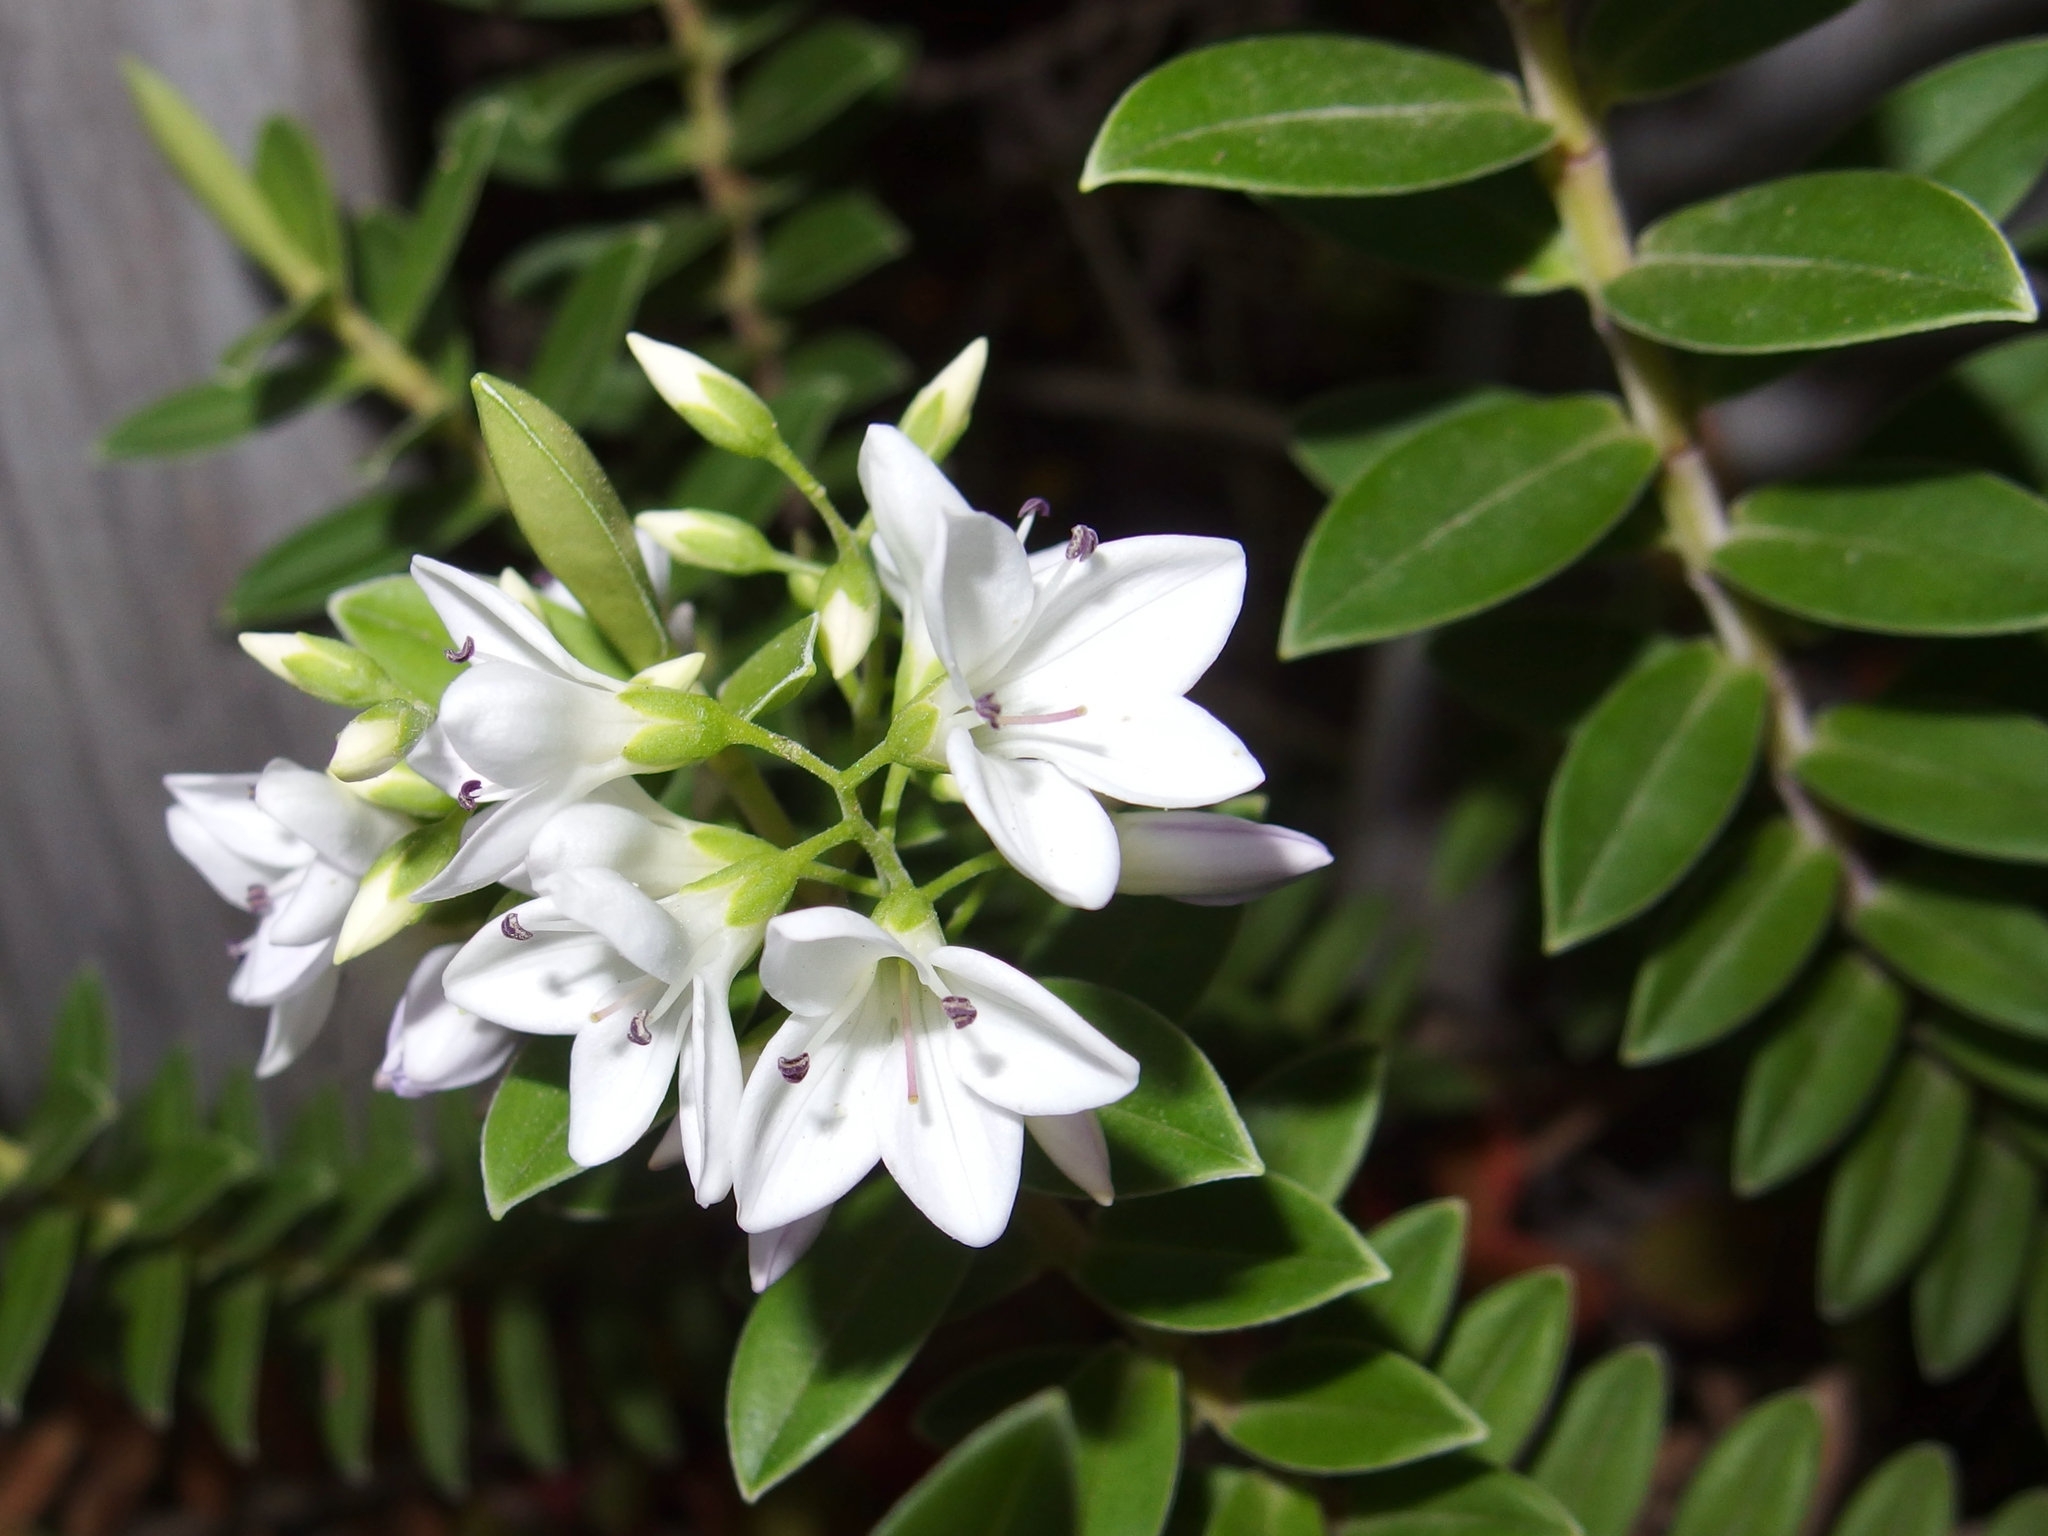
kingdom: Plantae
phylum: Tracheophyta
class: Magnoliopsida
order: Lamiales
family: Plantaginaceae
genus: Veronica
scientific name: Veronica elliptica
